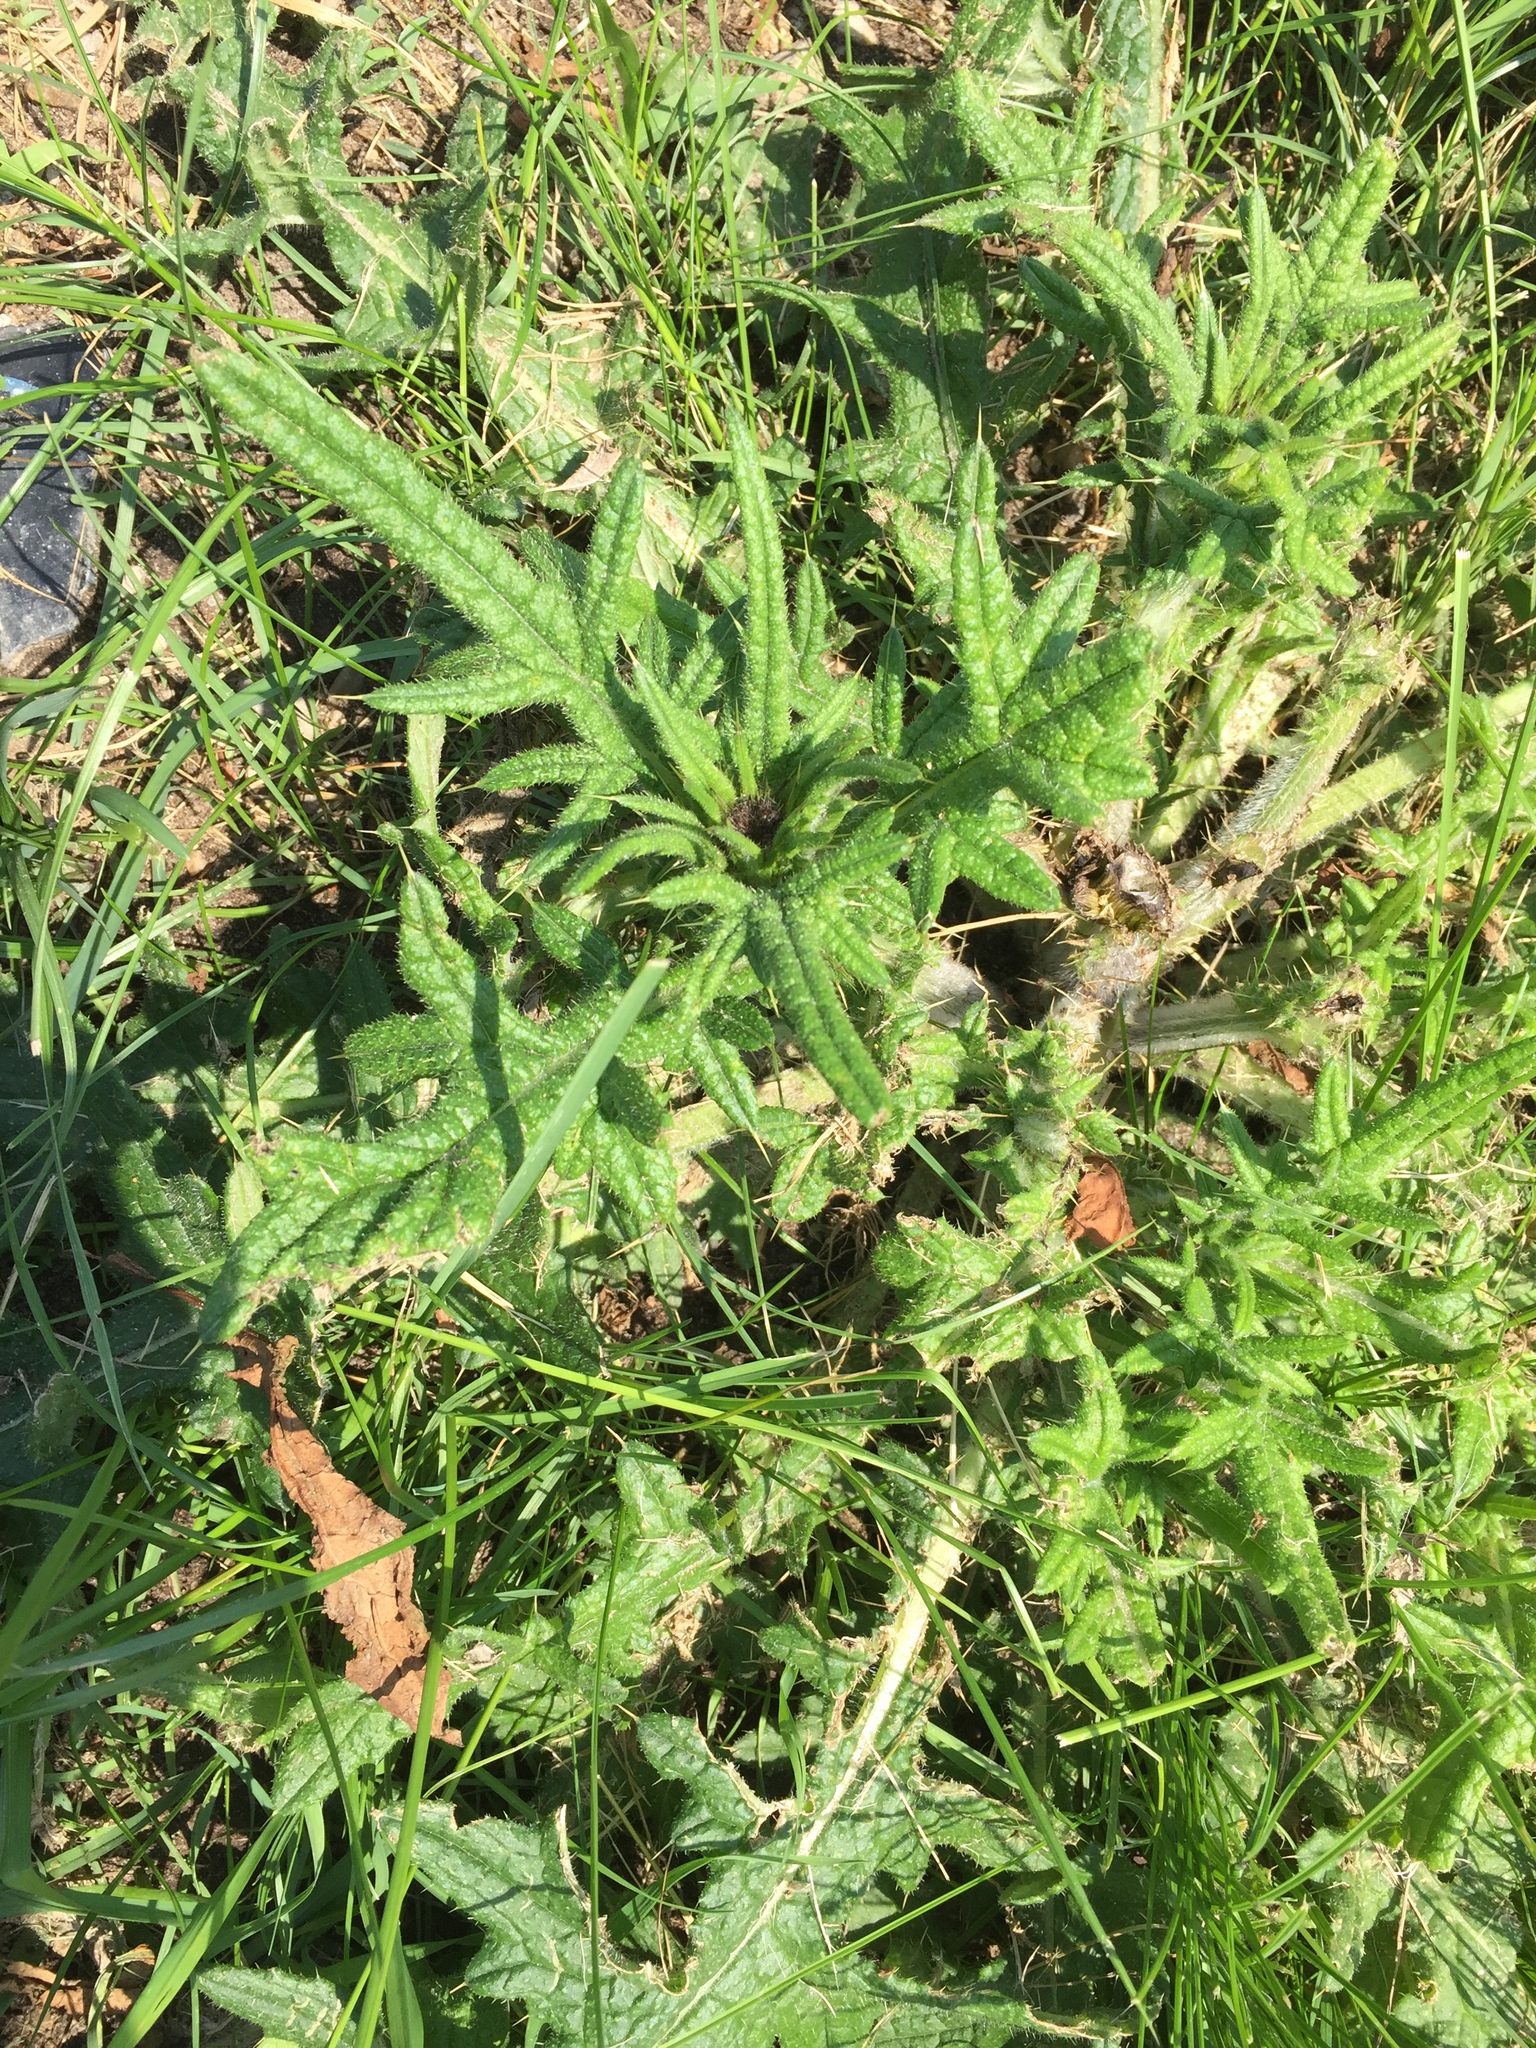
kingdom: Plantae
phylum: Tracheophyta
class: Magnoliopsida
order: Asterales
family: Asteraceae
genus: Cirsium
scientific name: Cirsium vulgare
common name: Bull thistle
